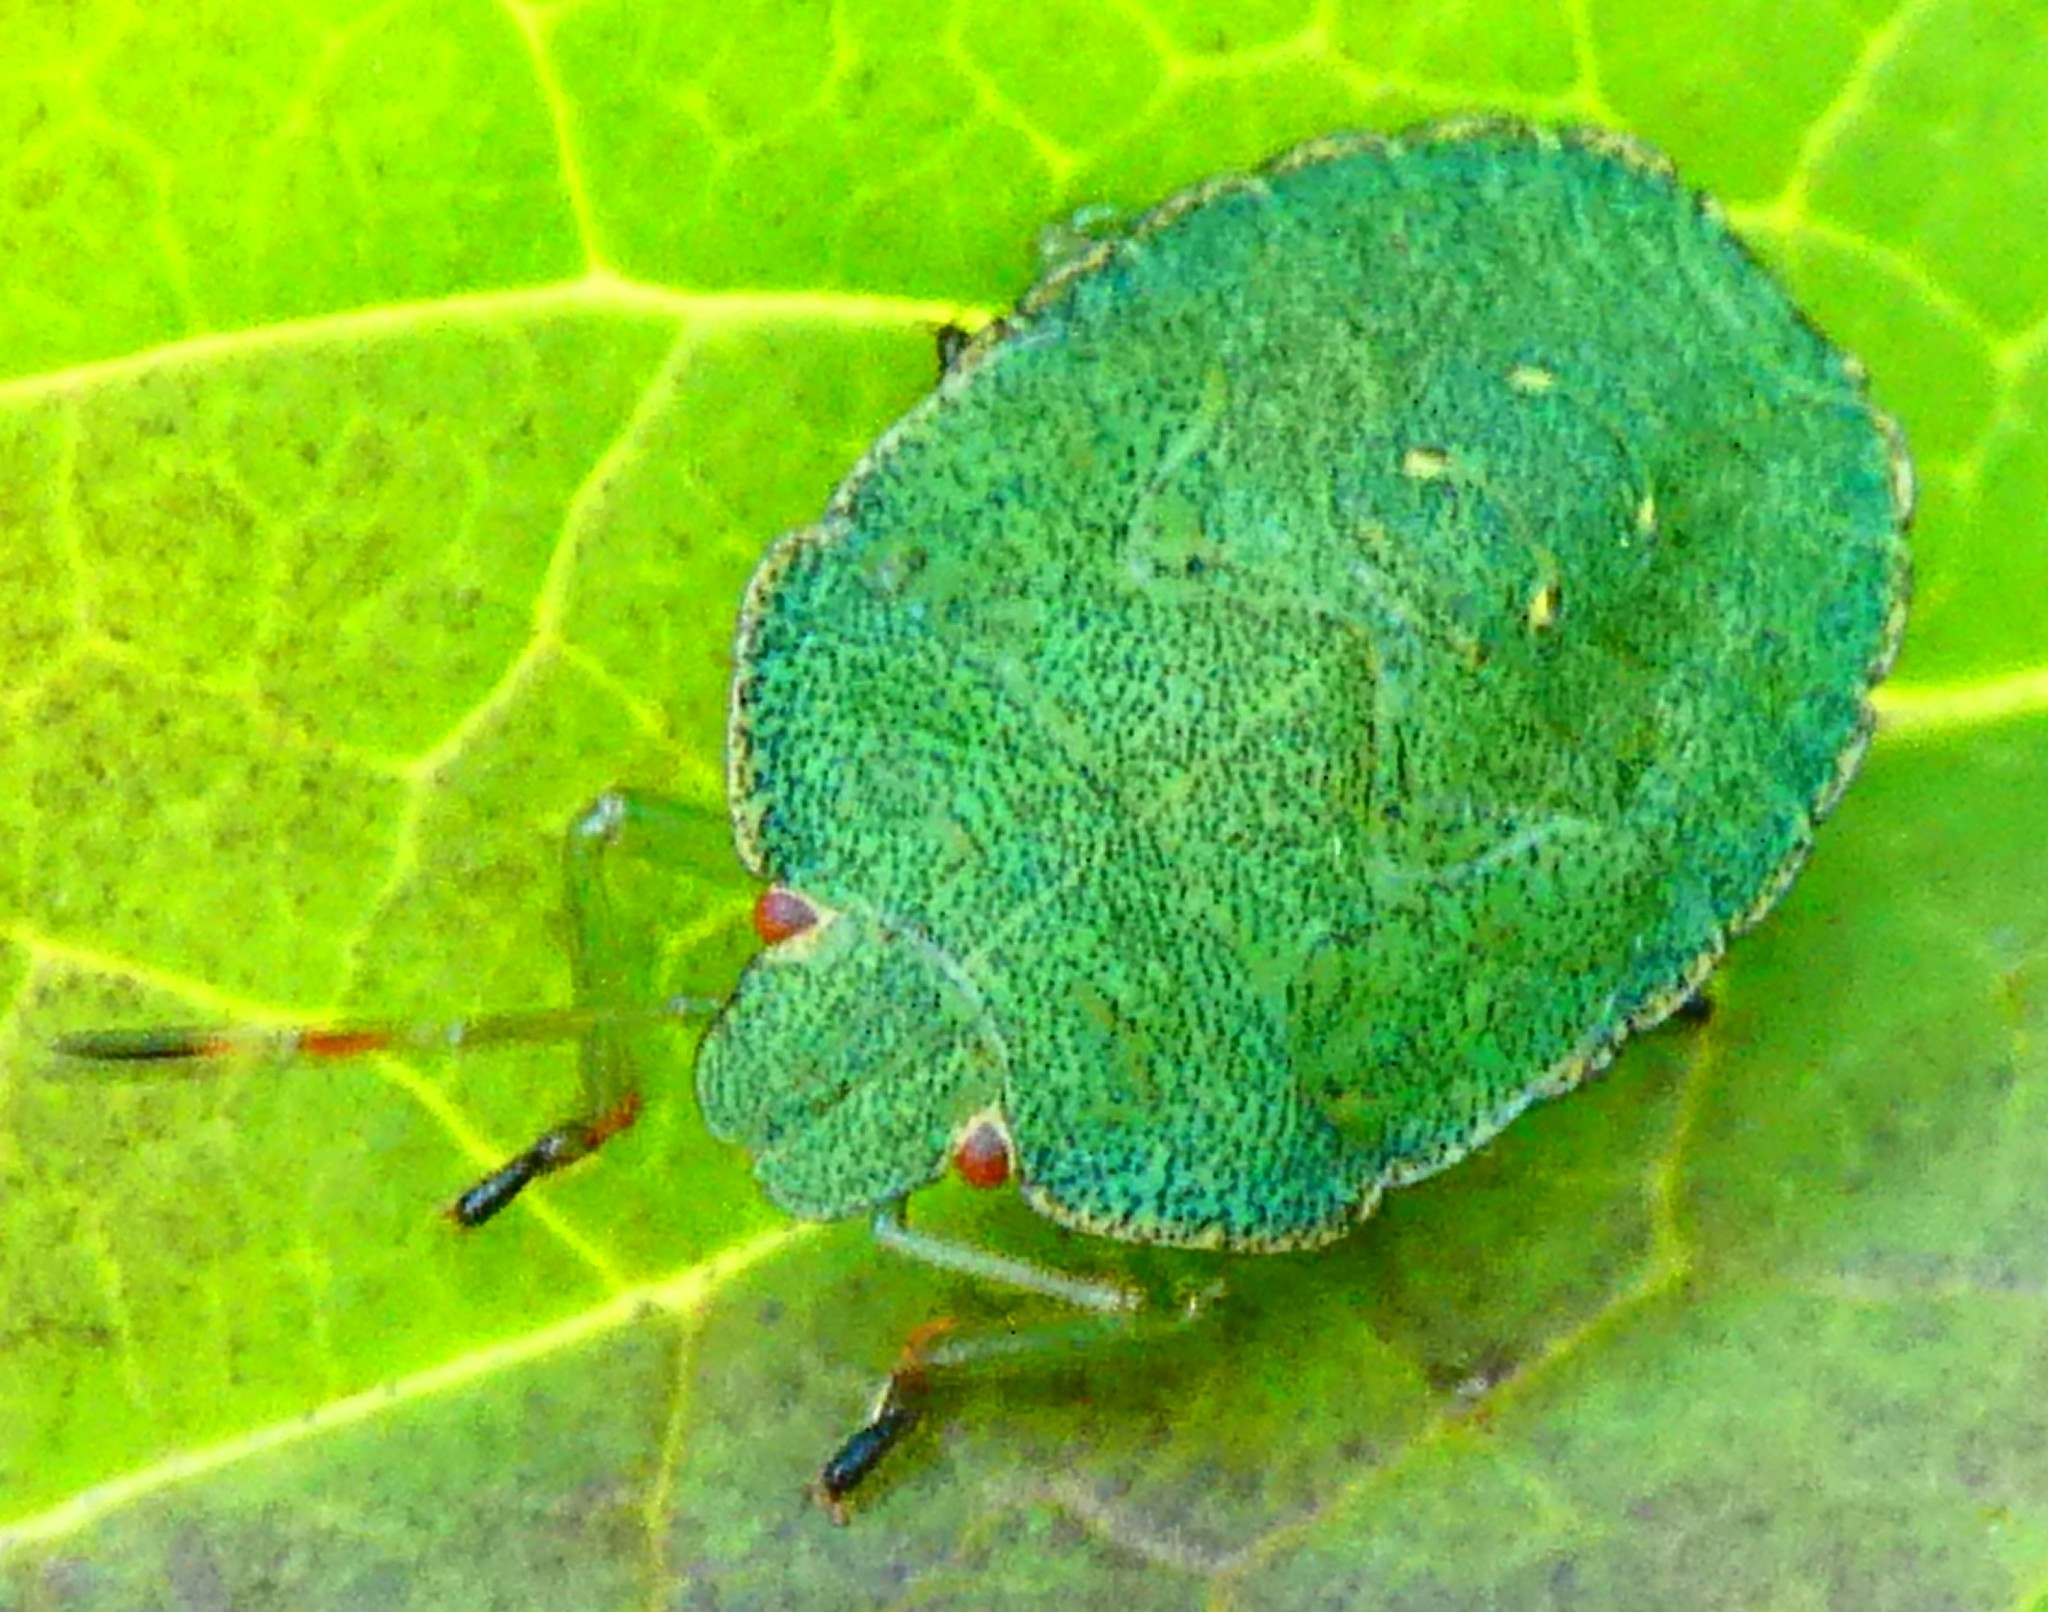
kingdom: Animalia
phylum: Arthropoda
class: Insecta
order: Hemiptera
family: Pentatomidae
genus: Palomena
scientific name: Palomena prasina
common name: Green shieldbug
